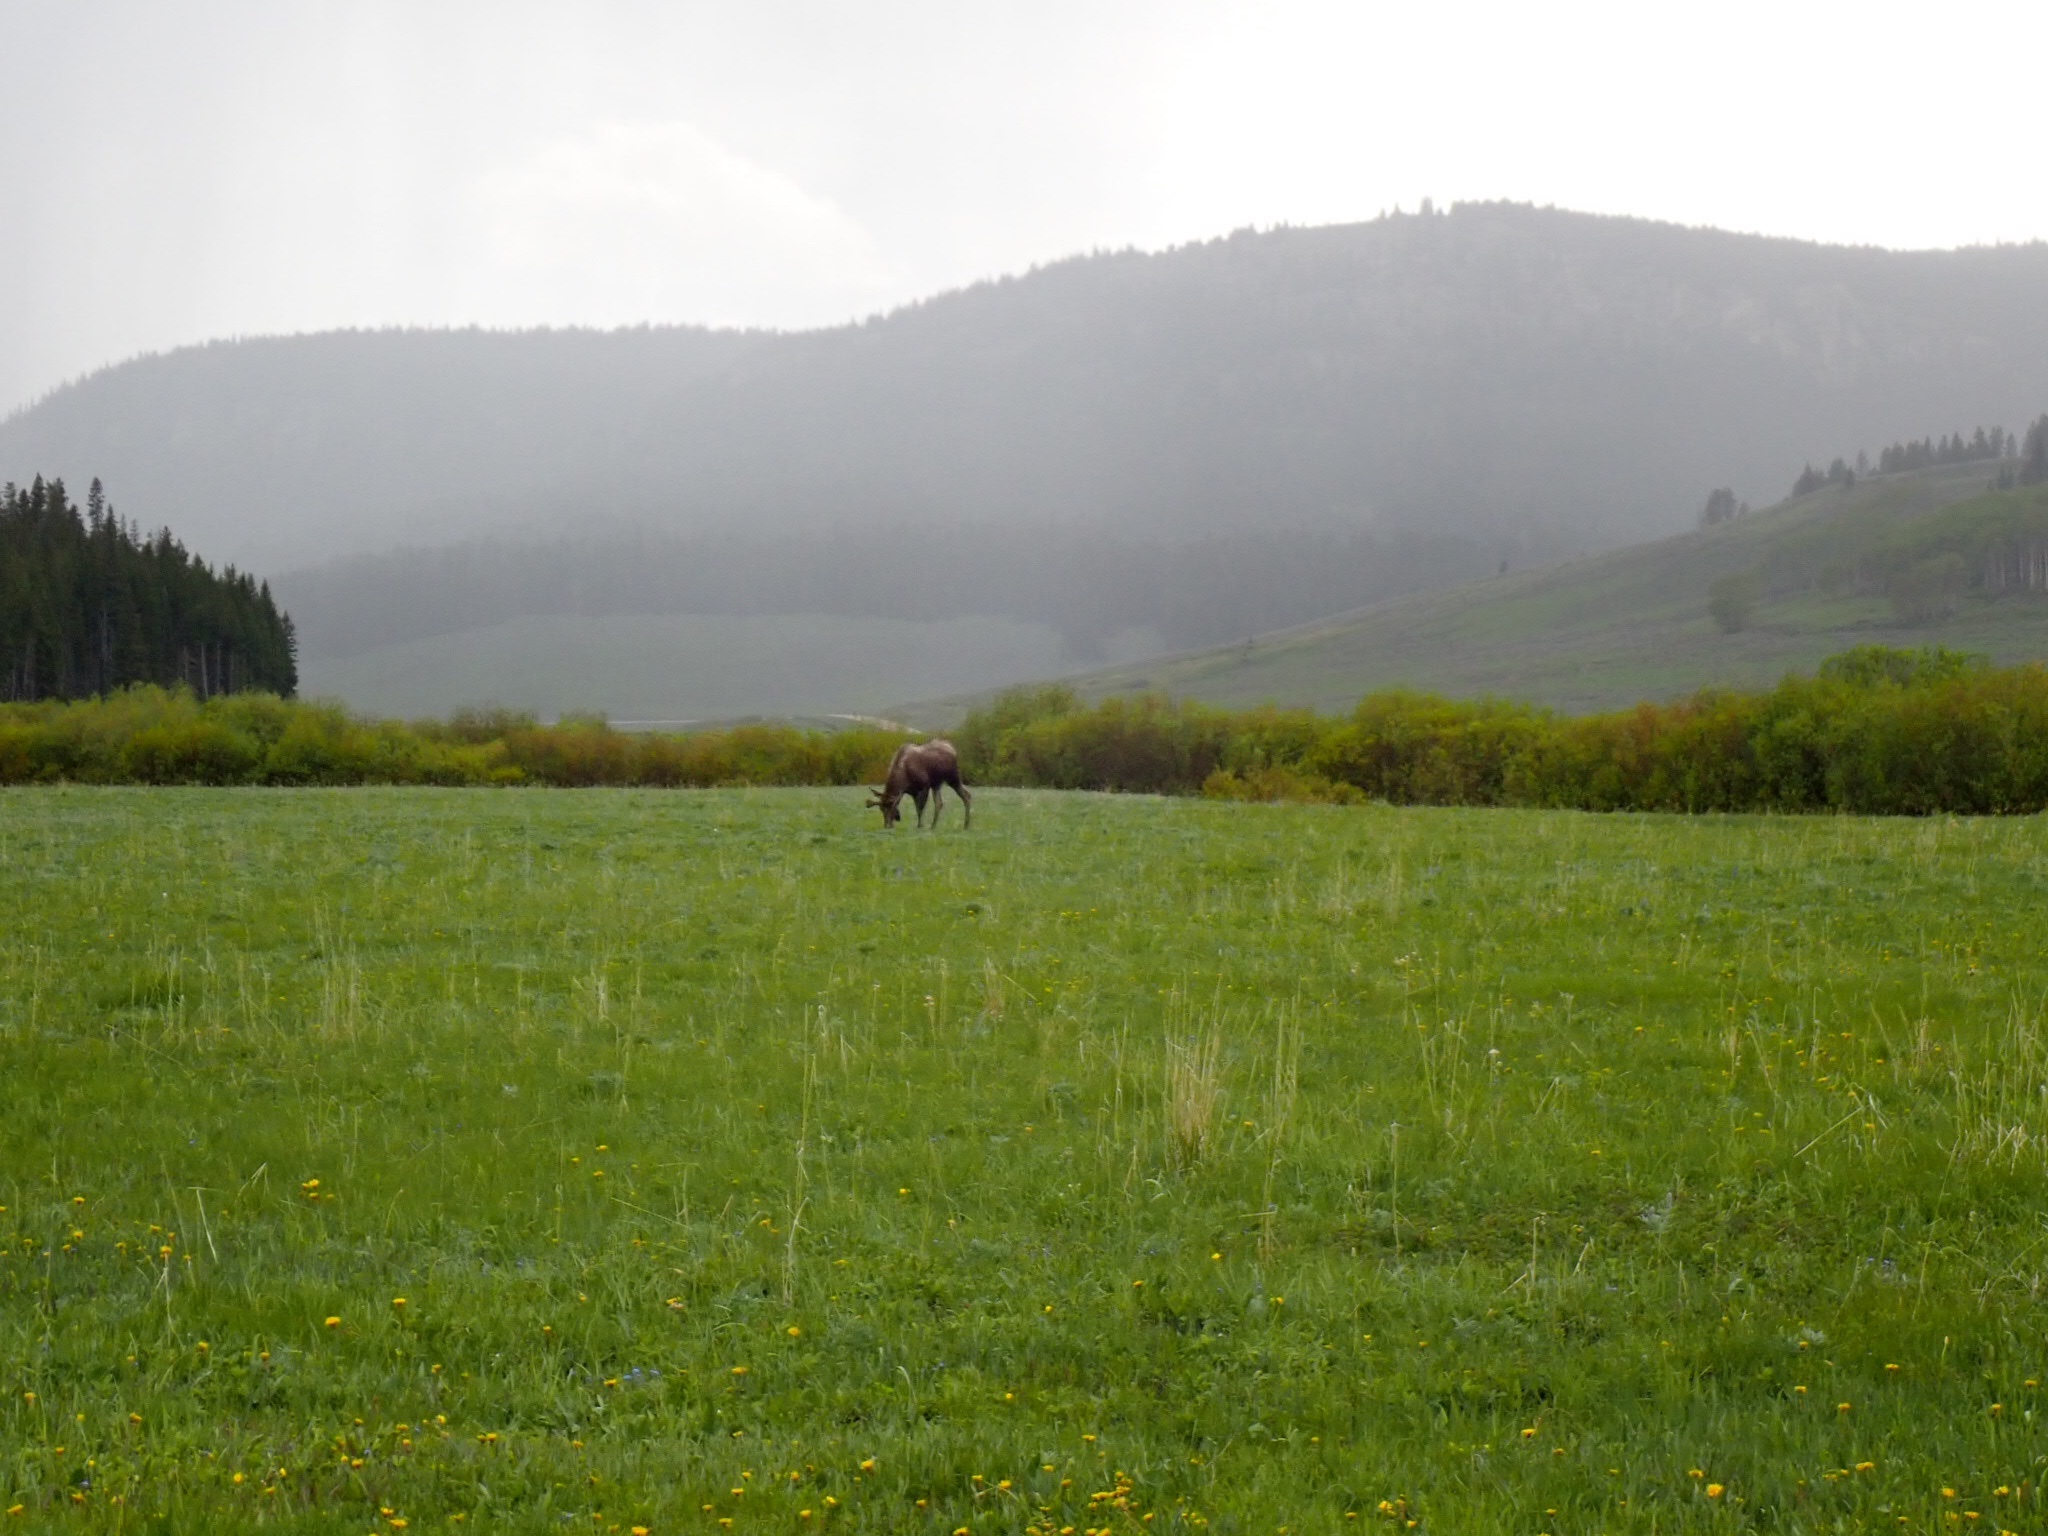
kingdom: Animalia
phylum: Chordata
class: Mammalia
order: Artiodactyla
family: Cervidae
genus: Alces
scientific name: Alces alces
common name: Moose
